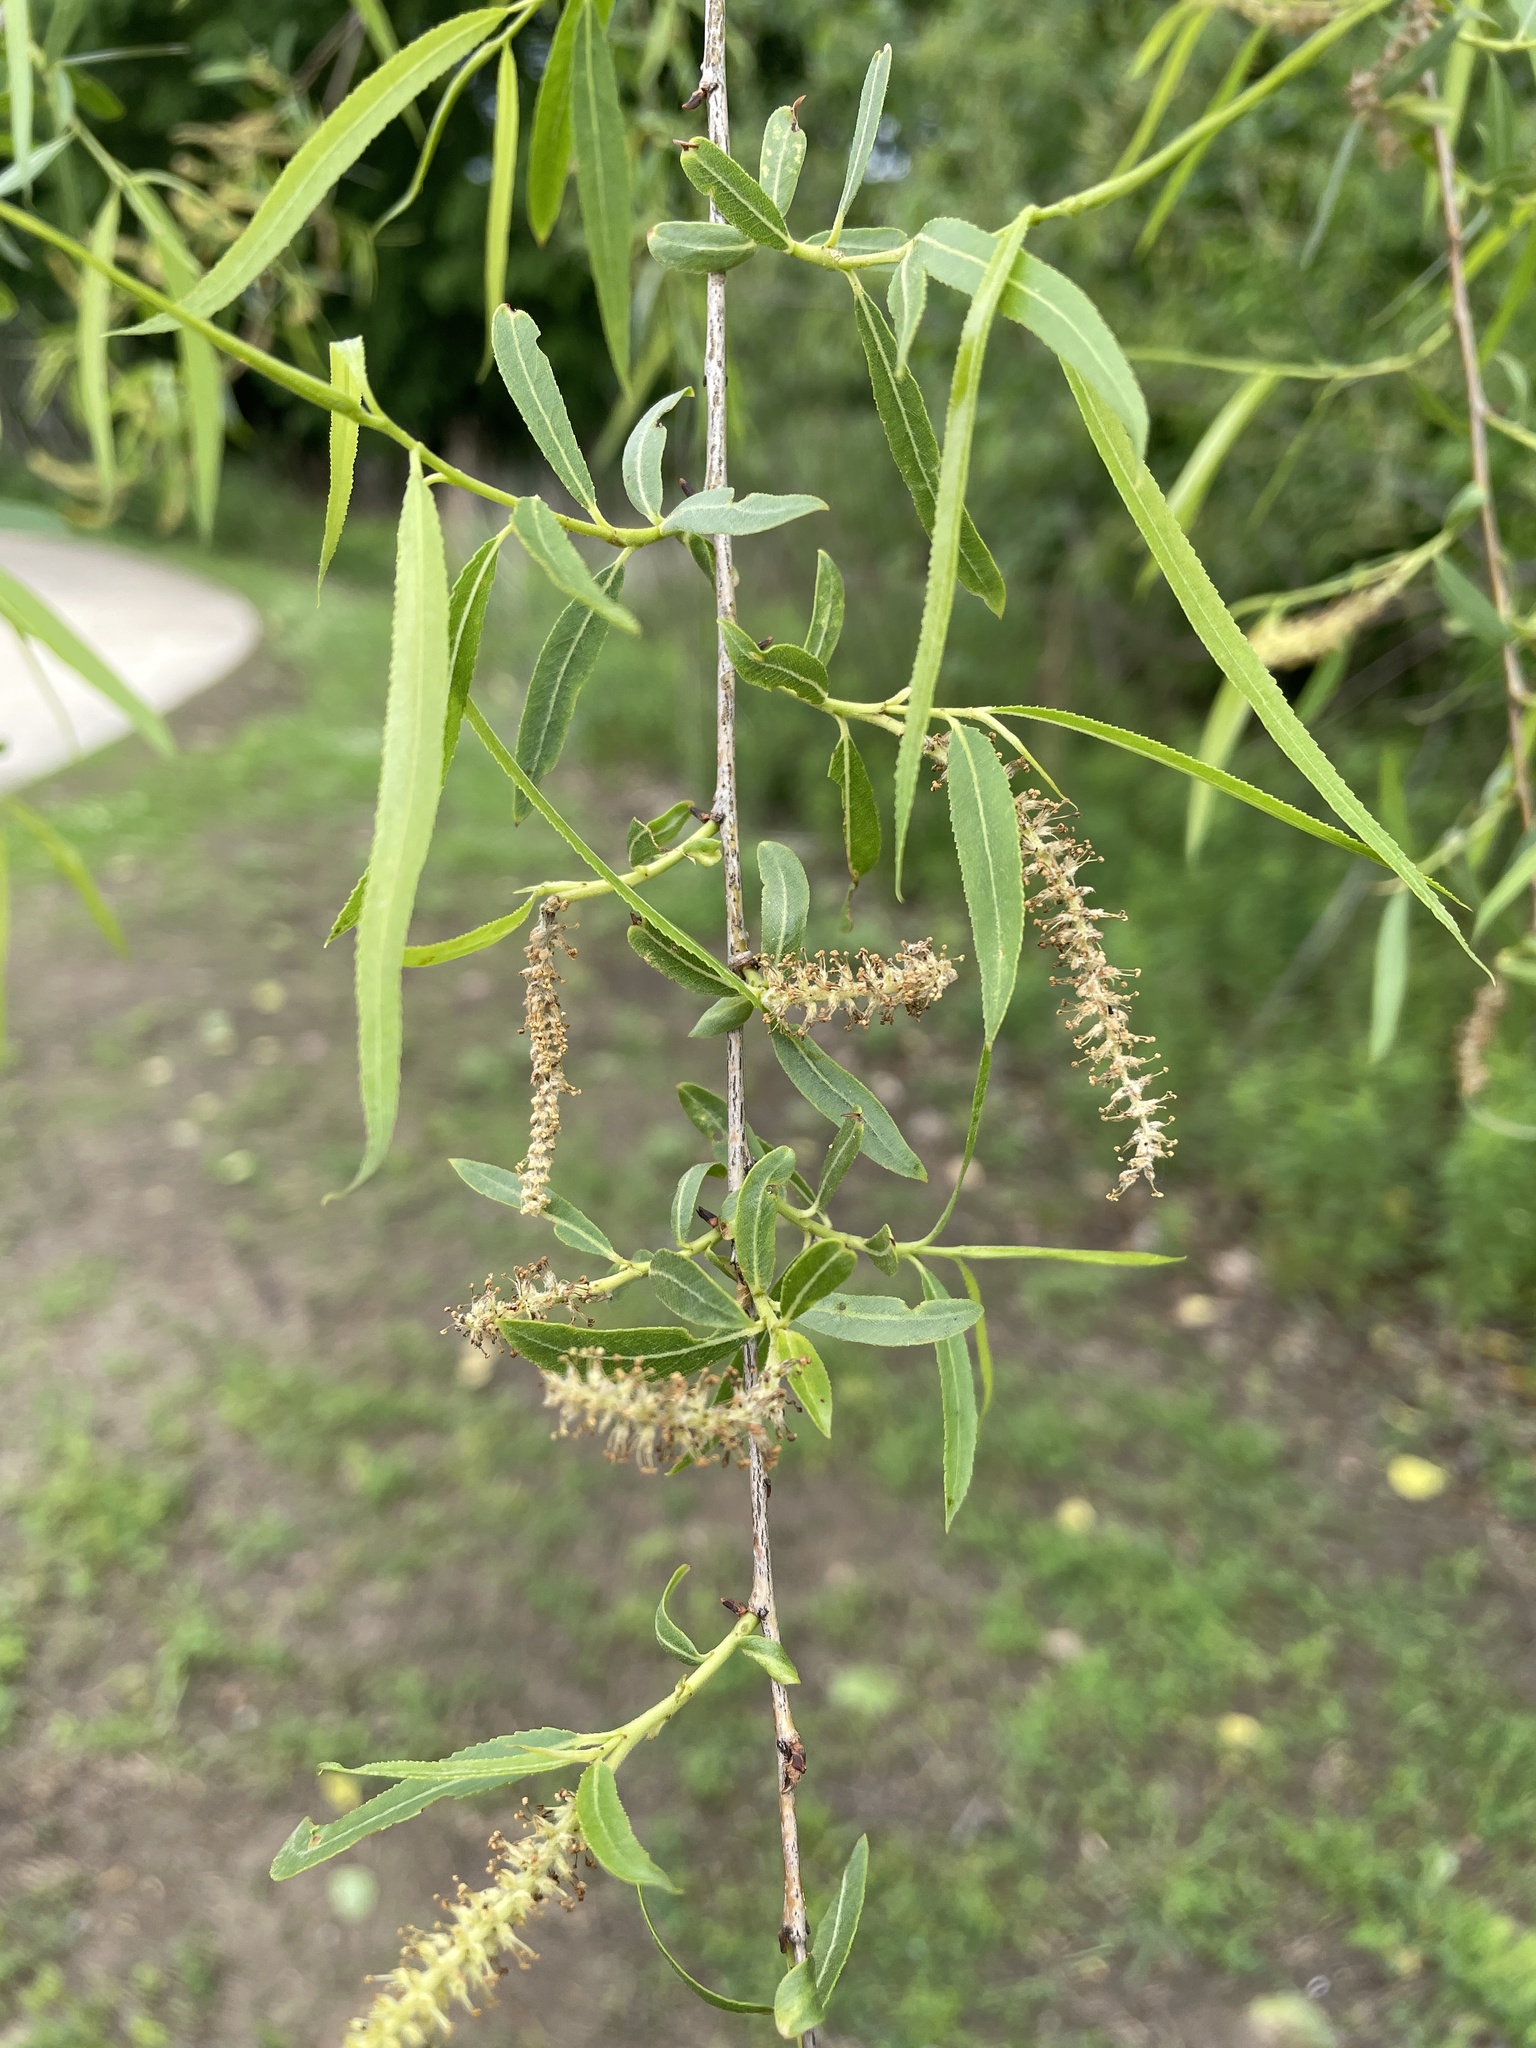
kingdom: Plantae
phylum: Tracheophyta
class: Magnoliopsida
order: Malpighiales
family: Salicaceae
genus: Salix
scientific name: Salix nigra
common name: Black willow
